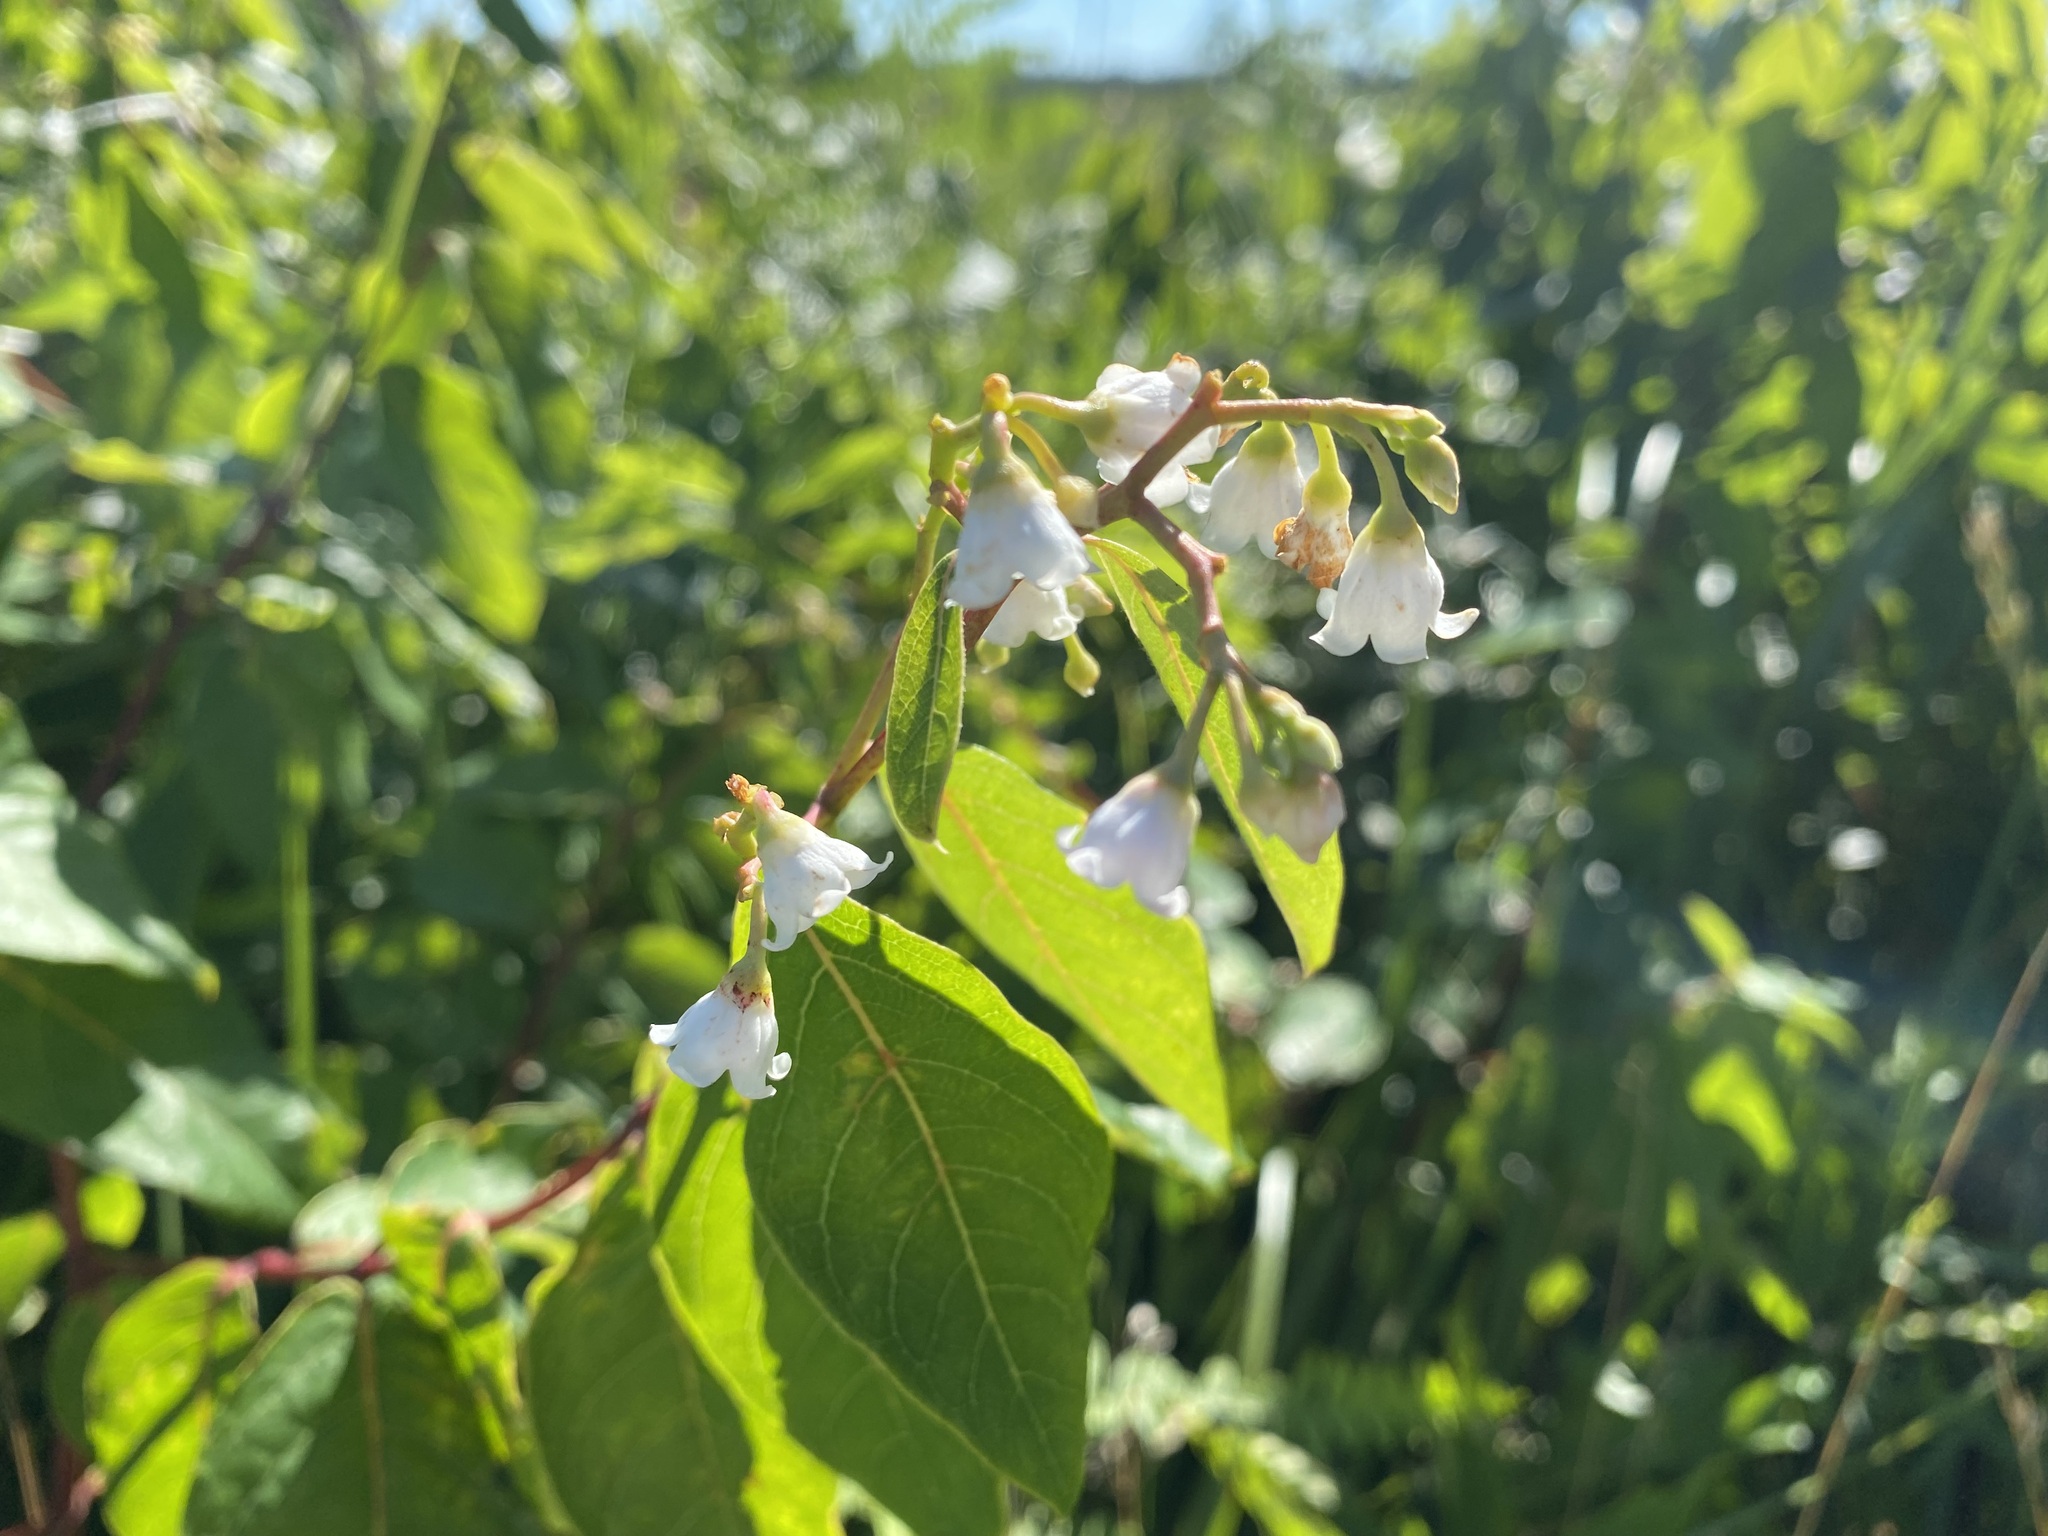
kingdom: Plantae
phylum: Tracheophyta
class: Magnoliopsida
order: Gentianales
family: Apocynaceae
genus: Apocynum
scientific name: Apocynum androsaemifolium
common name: Spreading dogbane
